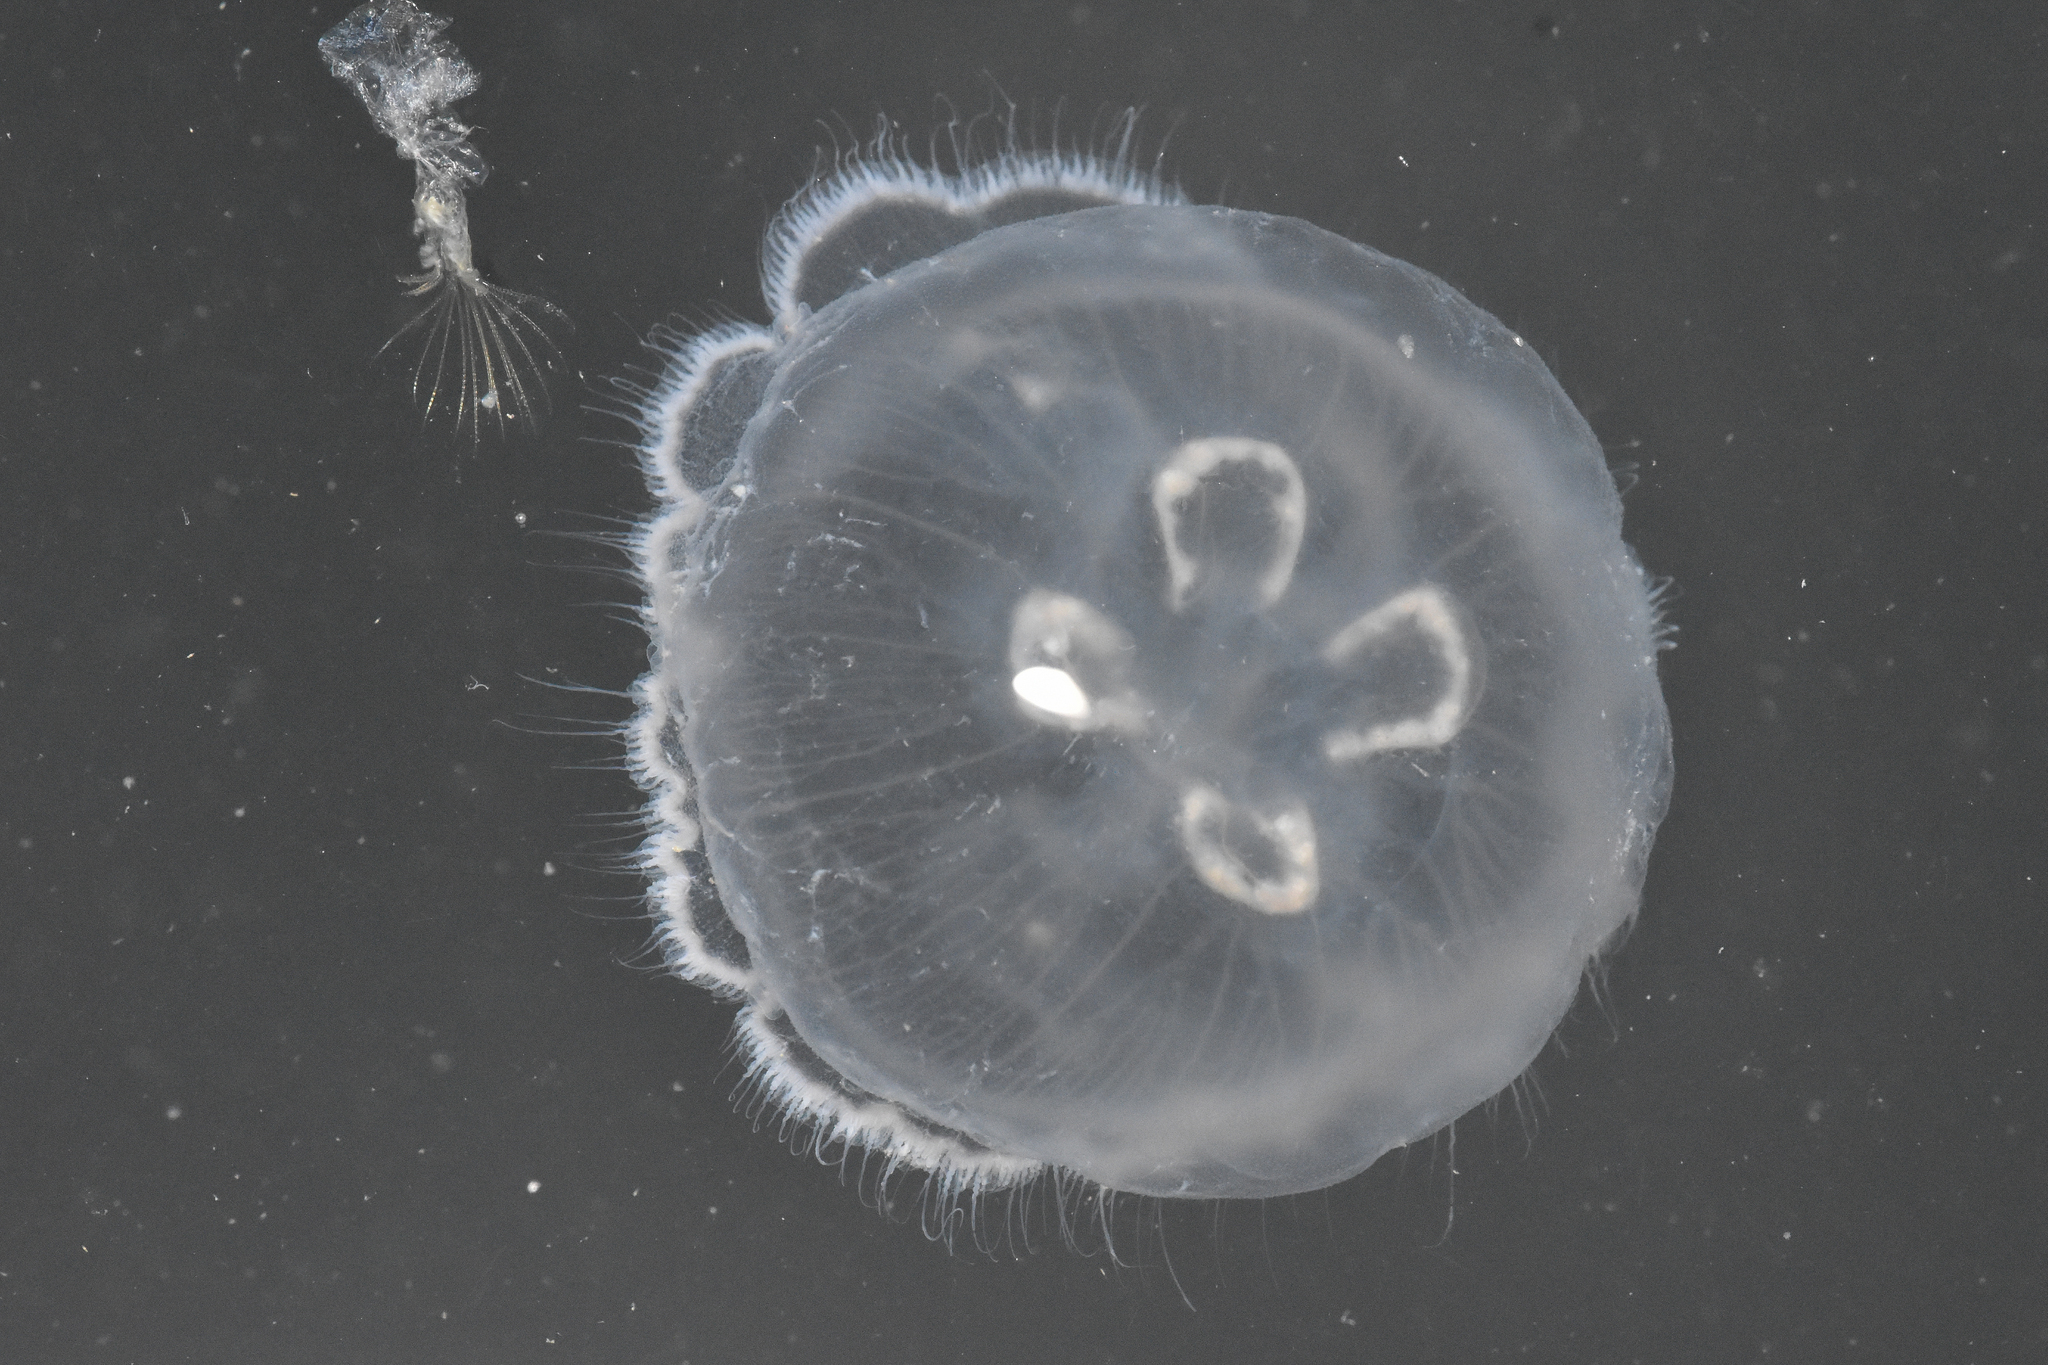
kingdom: Animalia
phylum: Cnidaria
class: Scyphozoa
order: Semaeostomeae
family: Ulmaridae
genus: Aurelia
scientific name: Aurelia labiata
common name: Pacific moon jelly
